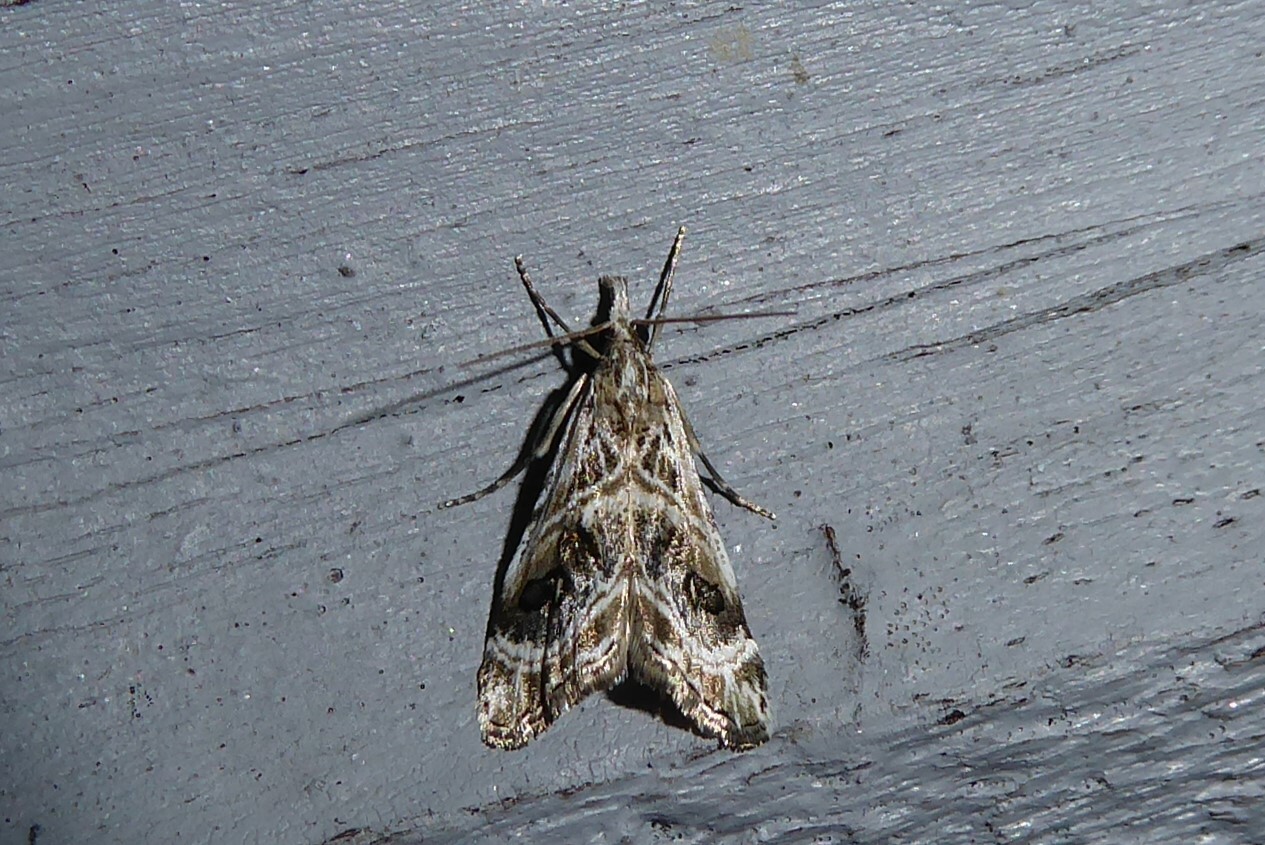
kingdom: Animalia
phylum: Arthropoda
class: Insecta
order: Lepidoptera
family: Crambidae
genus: Gadira
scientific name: Gadira acerella
